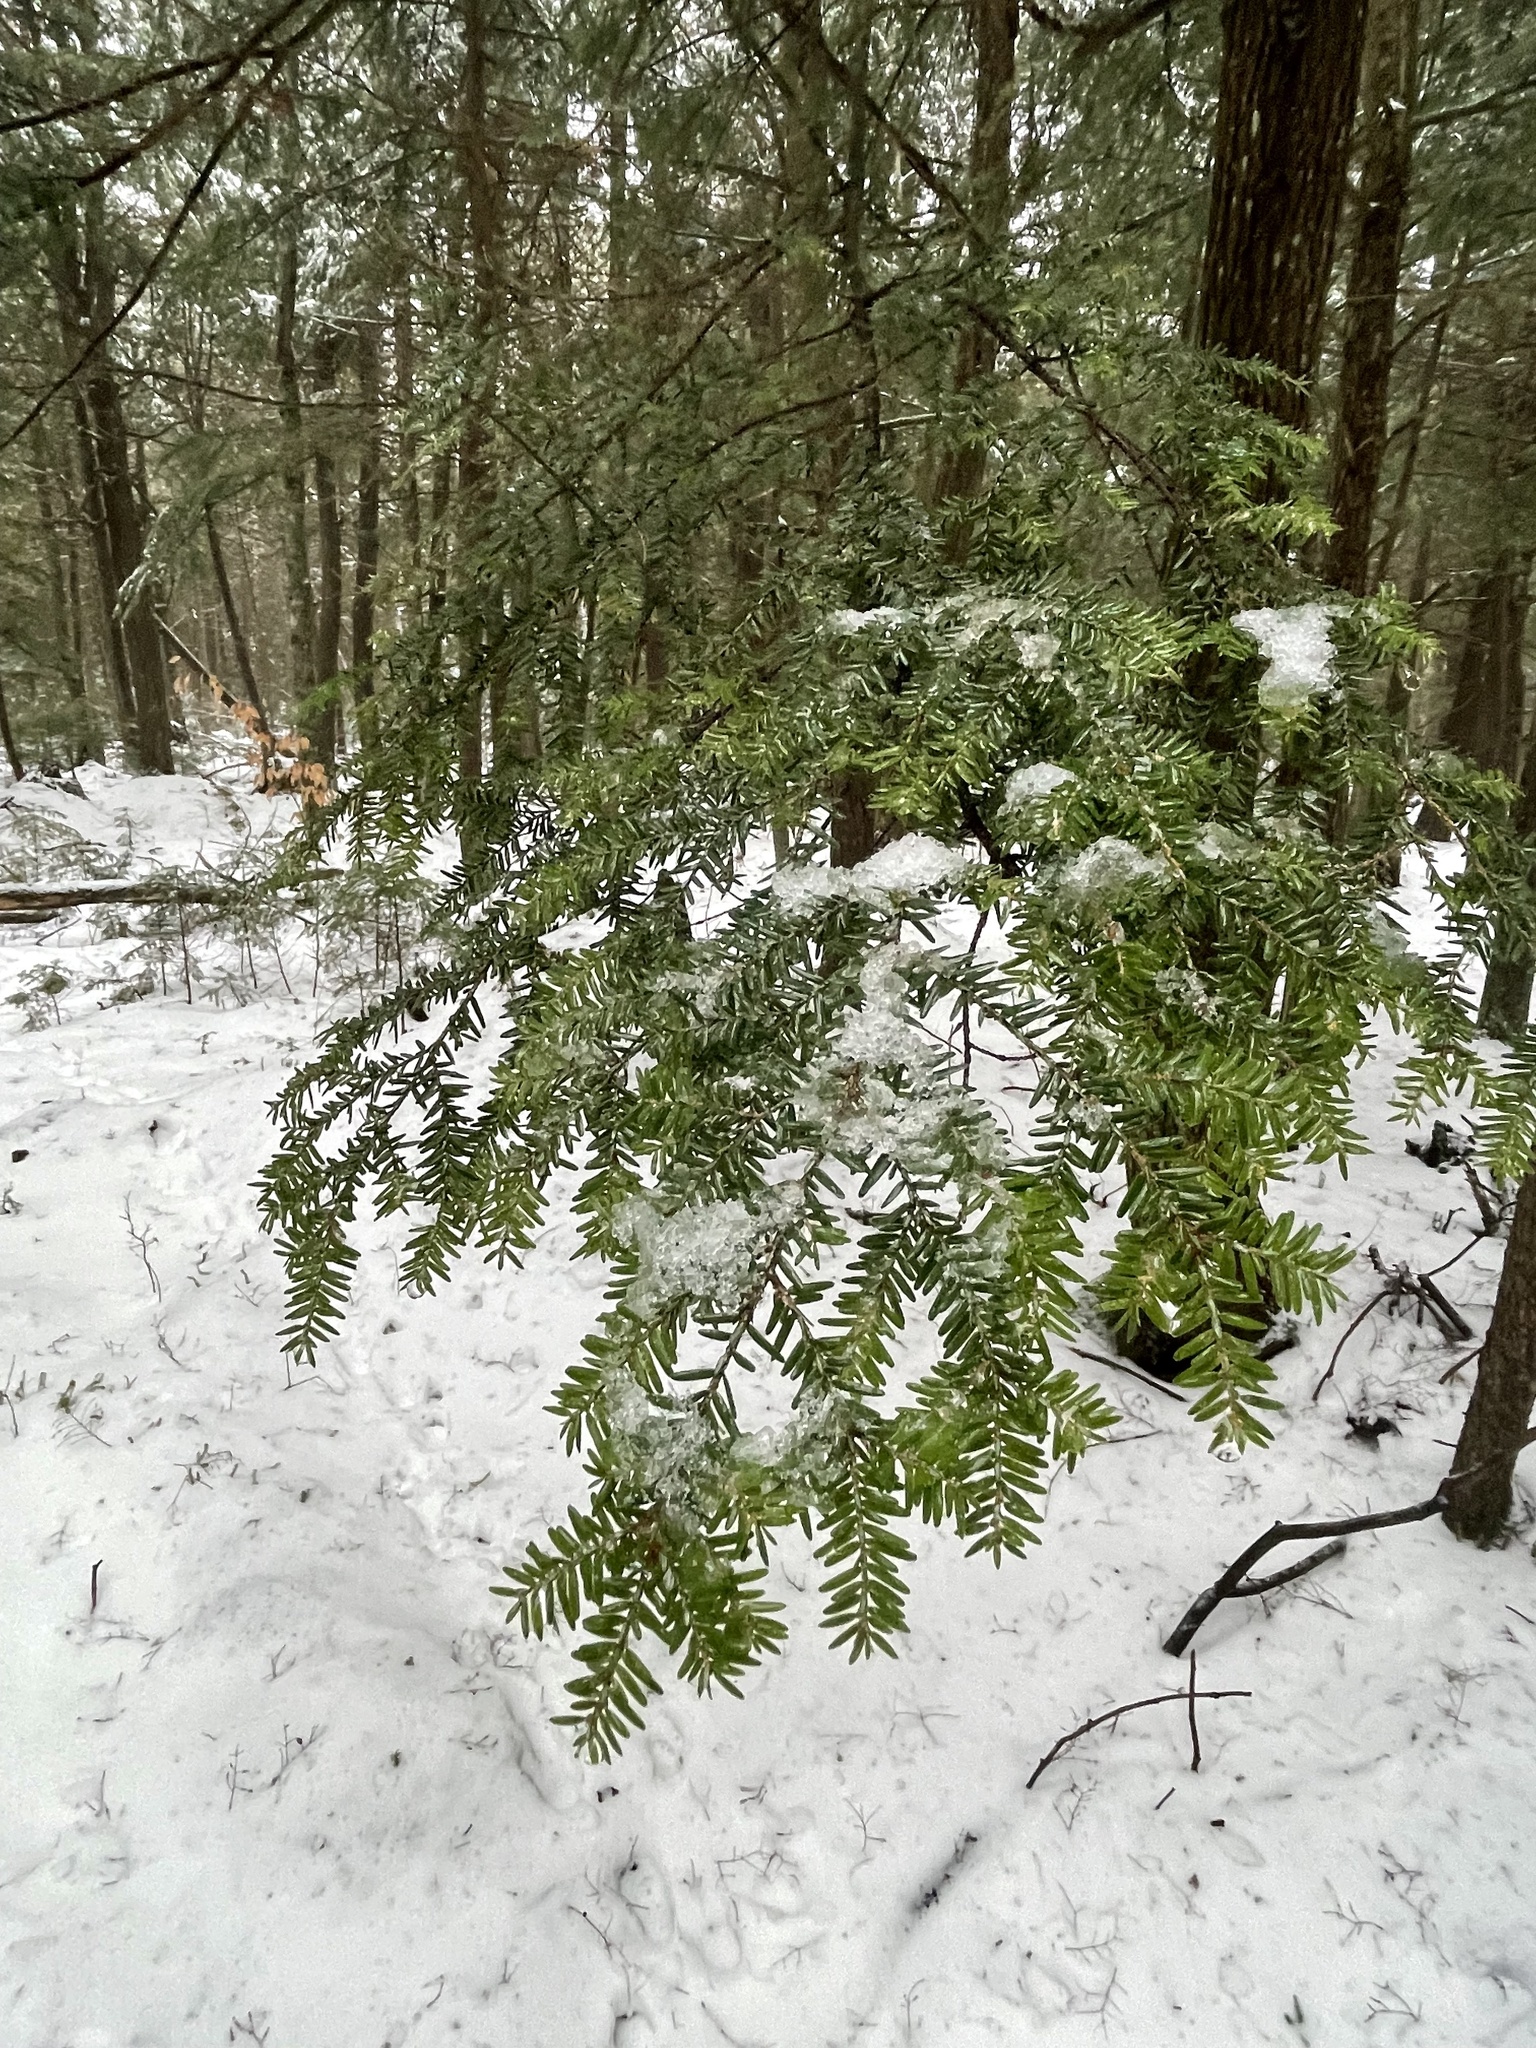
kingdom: Plantae
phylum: Tracheophyta
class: Pinopsida
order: Pinales
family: Pinaceae
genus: Tsuga
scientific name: Tsuga canadensis
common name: Eastern hemlock
